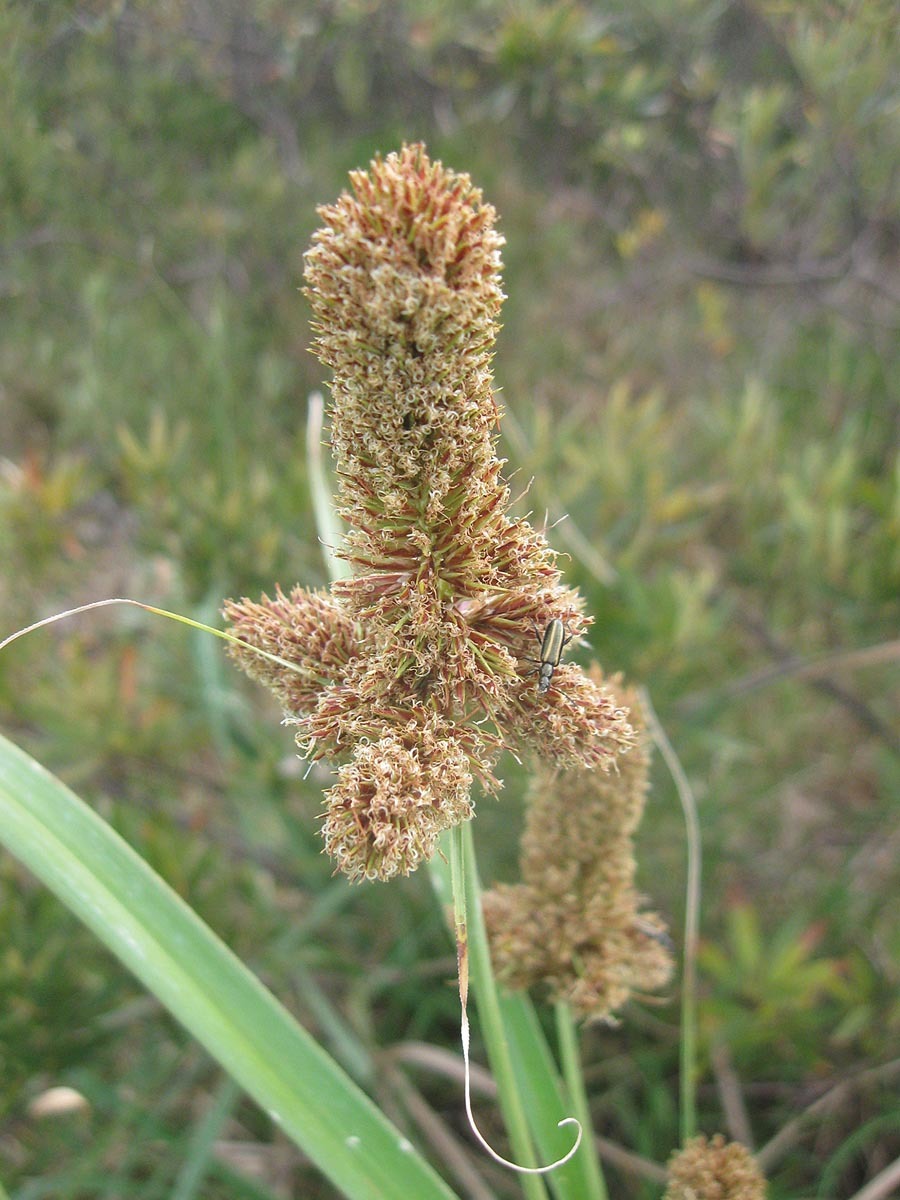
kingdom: Plantae
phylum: Tracheophyta
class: Liliopsida
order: Poales
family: Cyperaceae
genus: Cyperus
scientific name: Cyperus thunbergii
